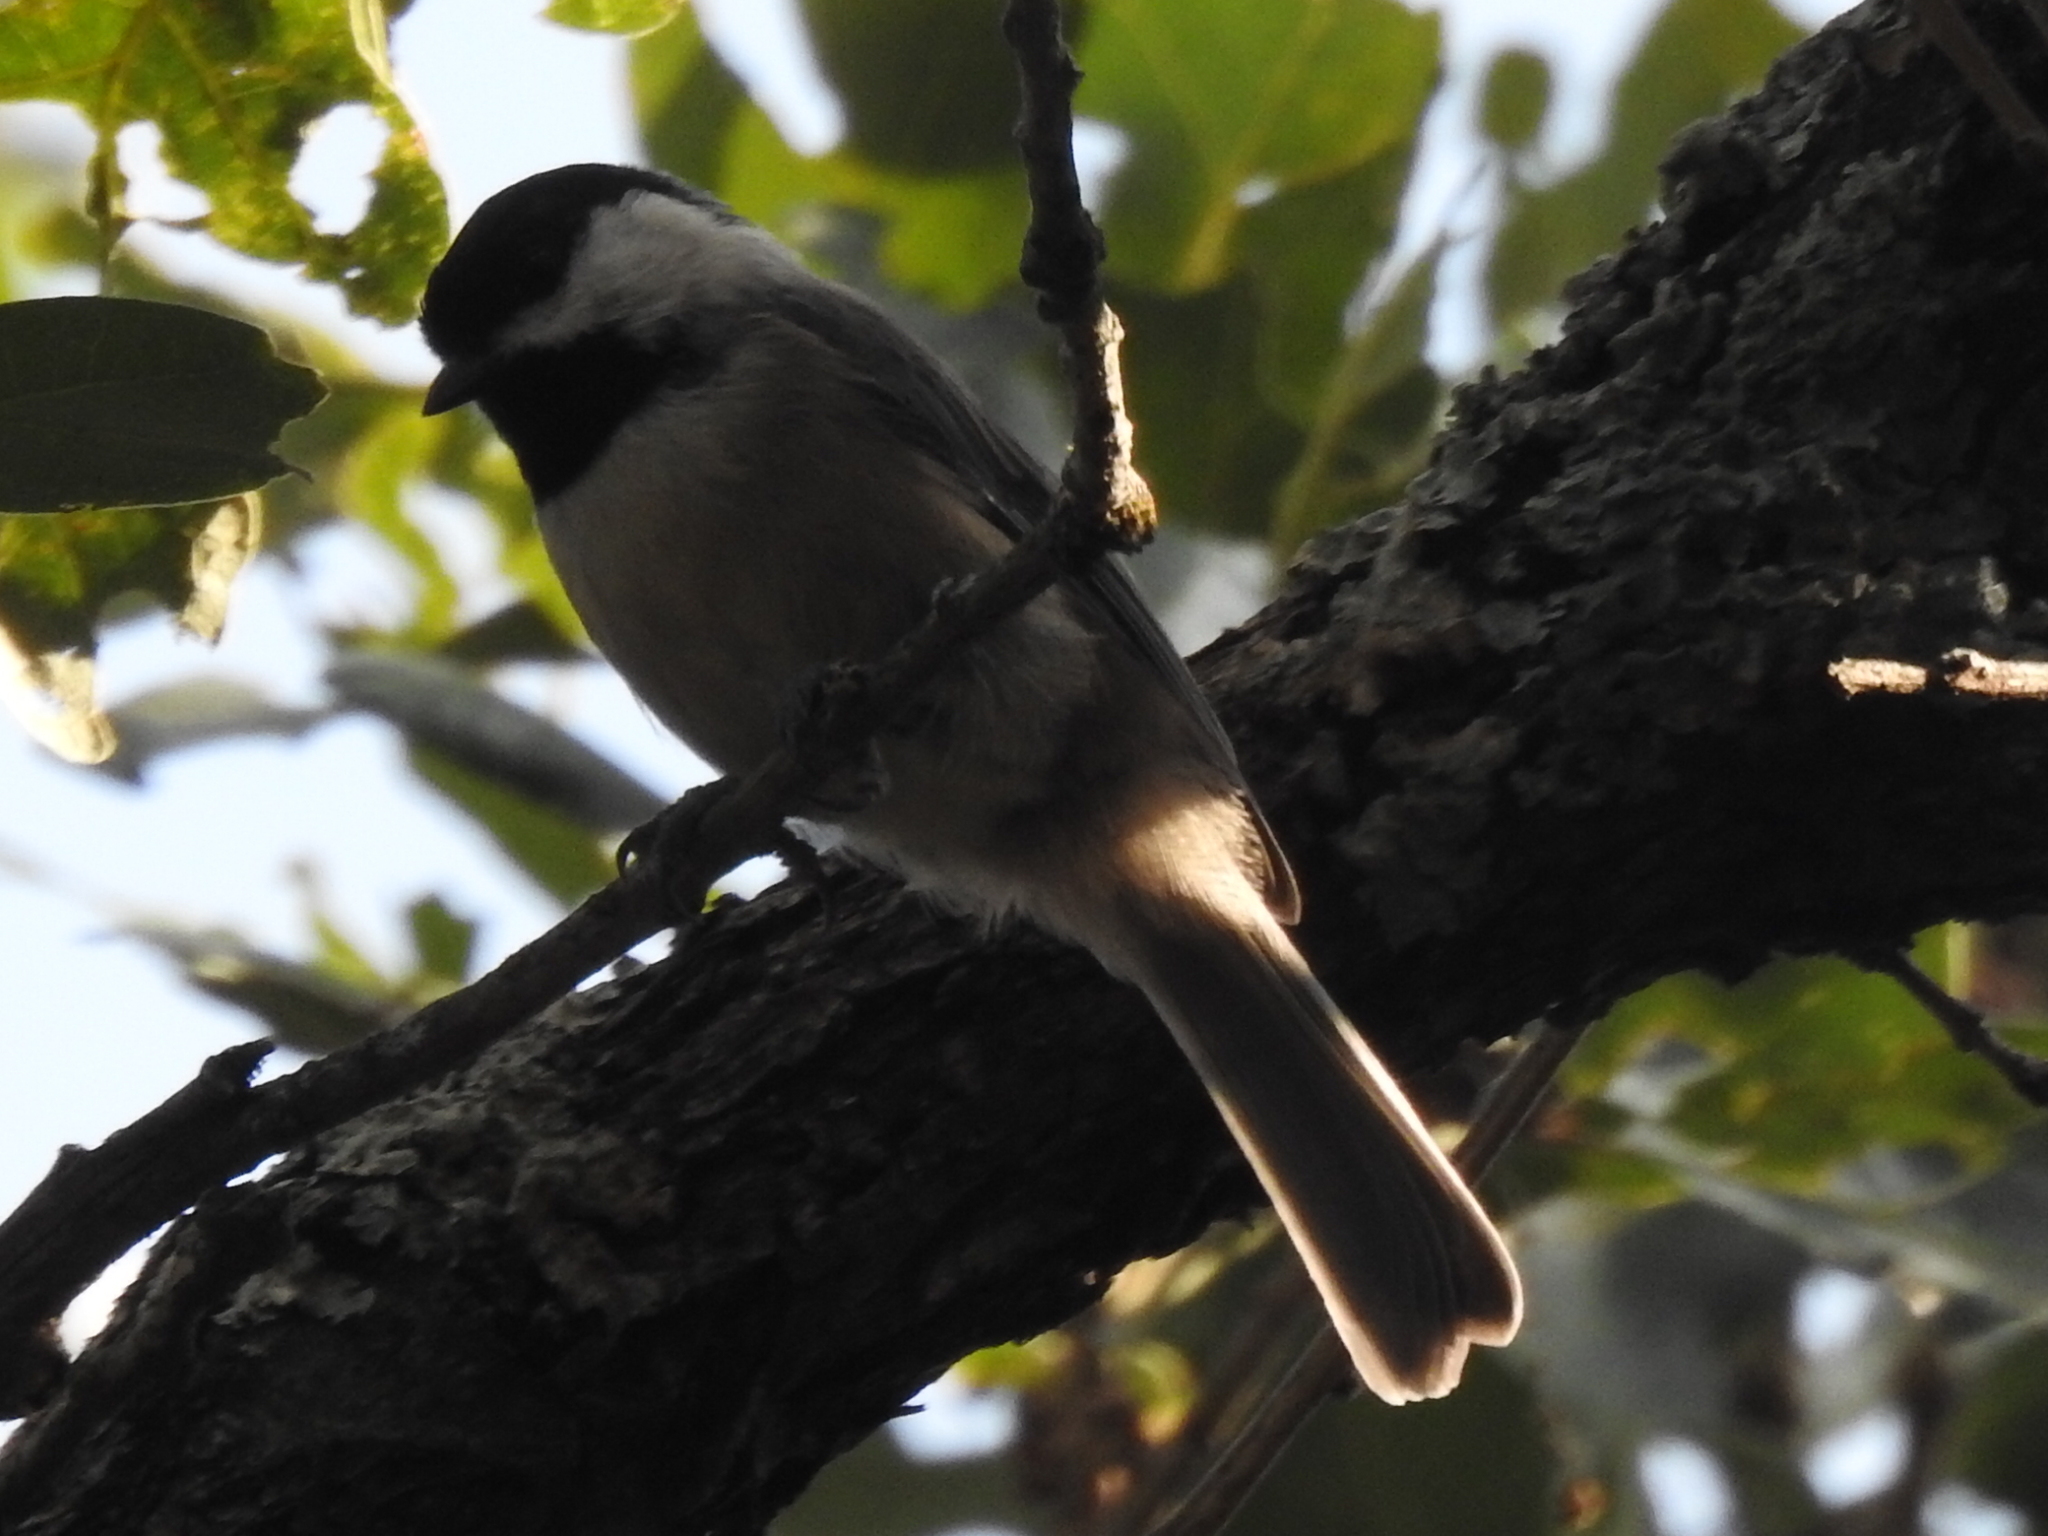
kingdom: Animalia
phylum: Chordata
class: Aves
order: Passeriformes
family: Paridae
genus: Poecile
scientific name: Poecile carolinensis
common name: Carolina chickadee
